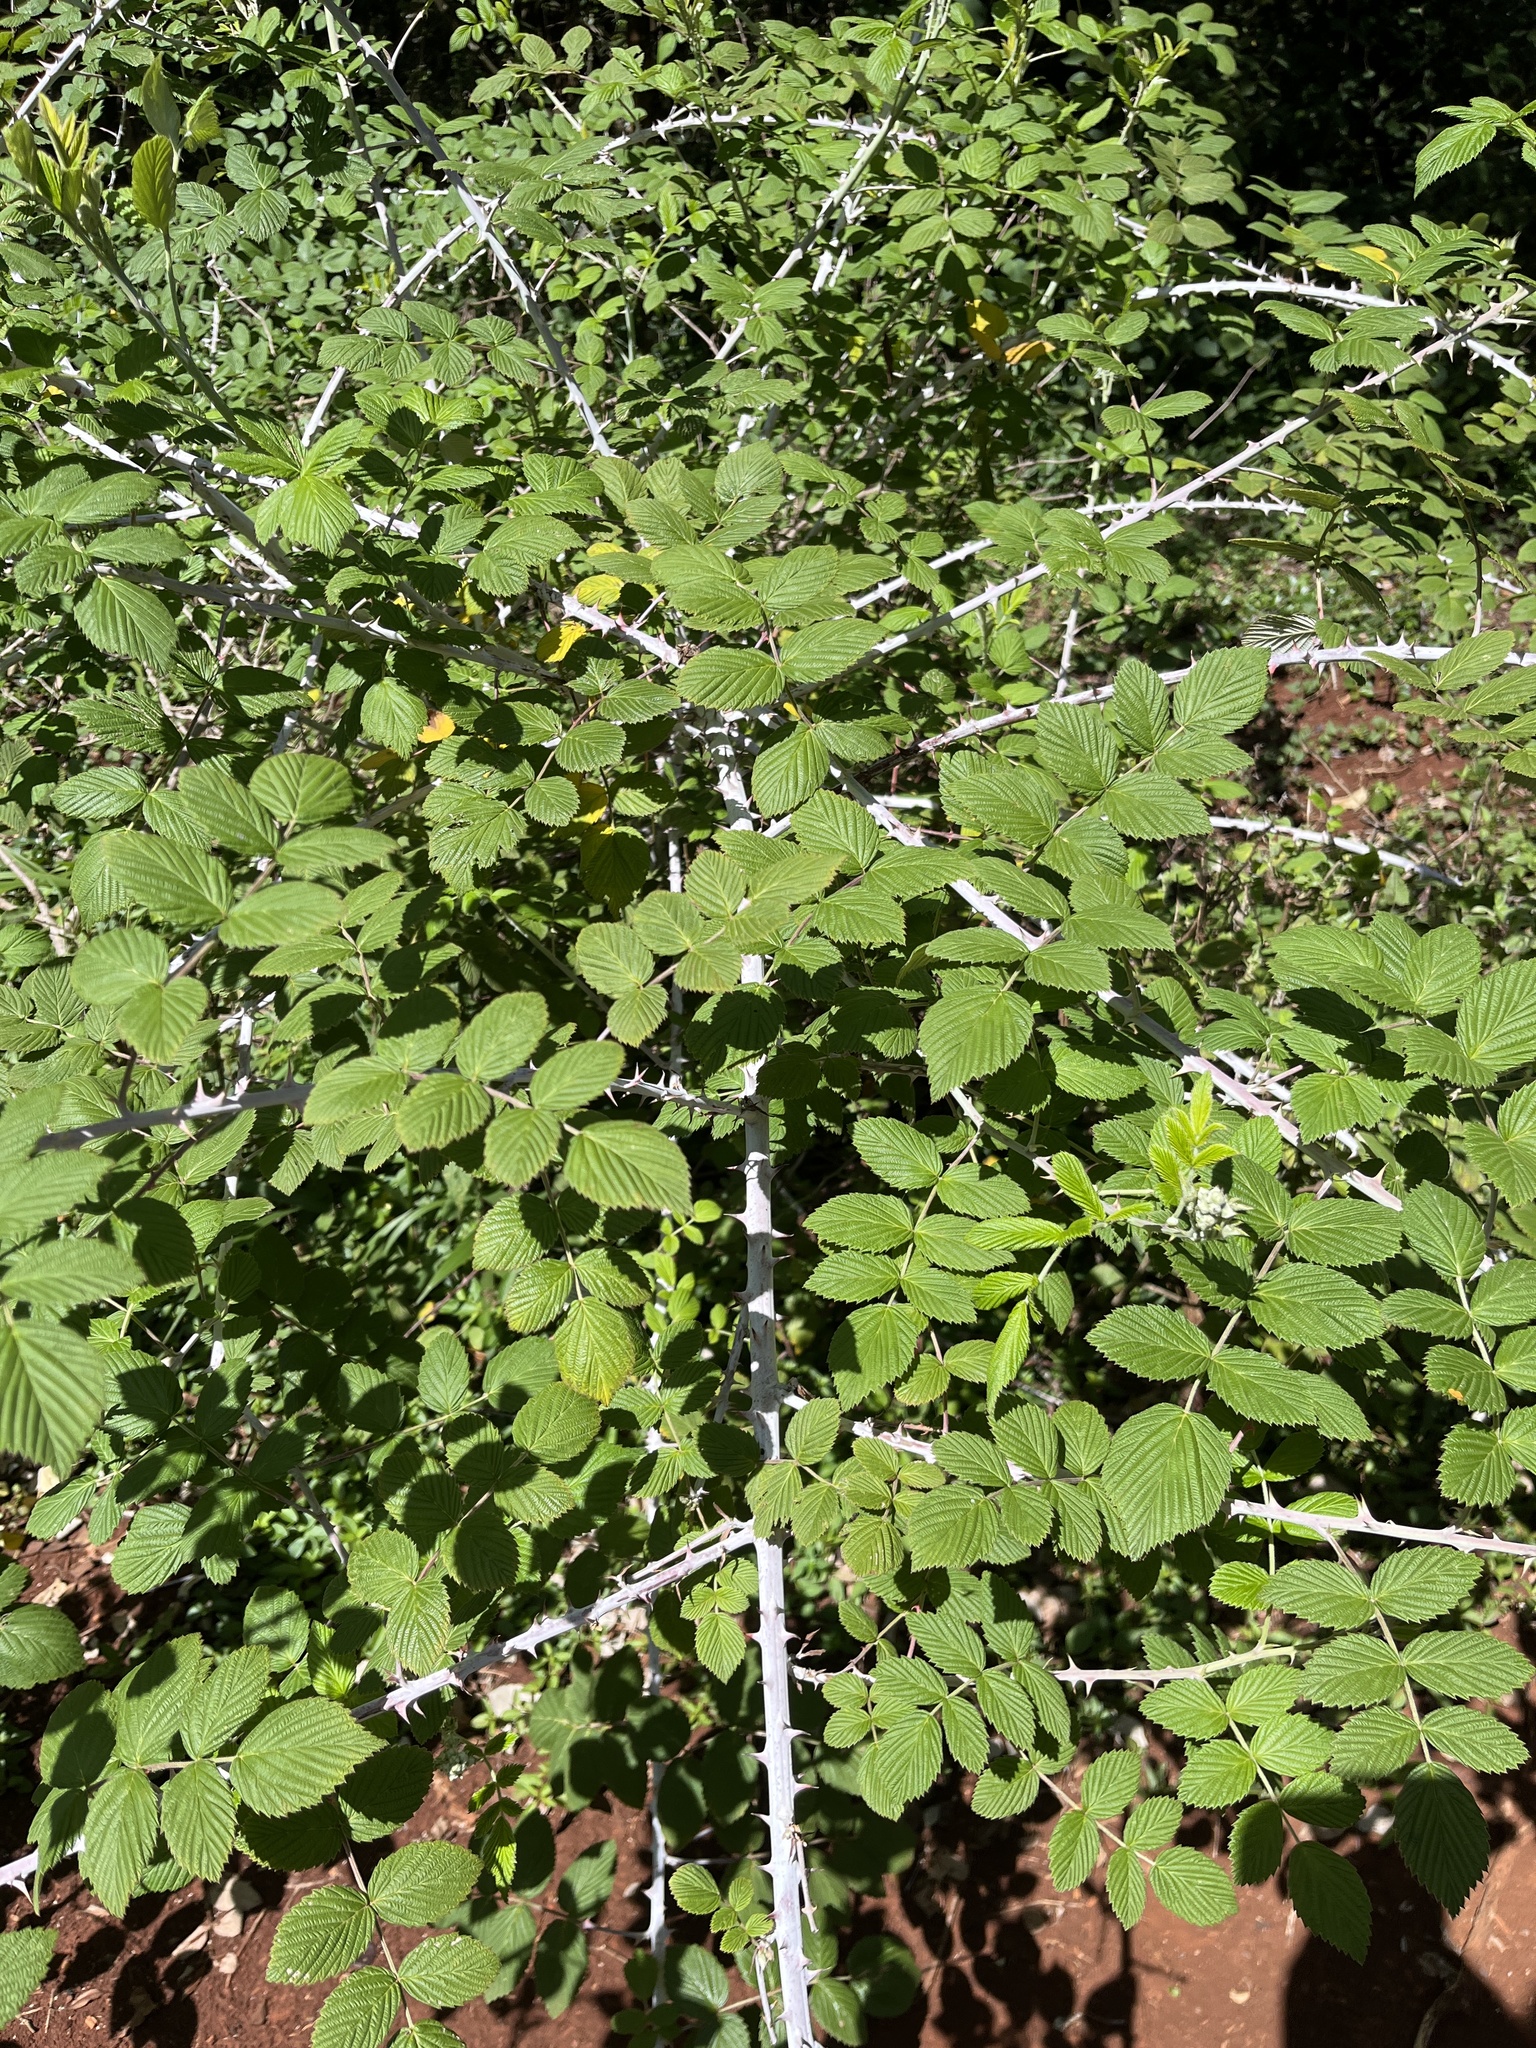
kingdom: Plantae
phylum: Tracheophyta
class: Magnoliopsida
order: Rosales
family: Rosaceae
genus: Rubus
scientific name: Rubus niveus
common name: Snowpeaks raspberry
